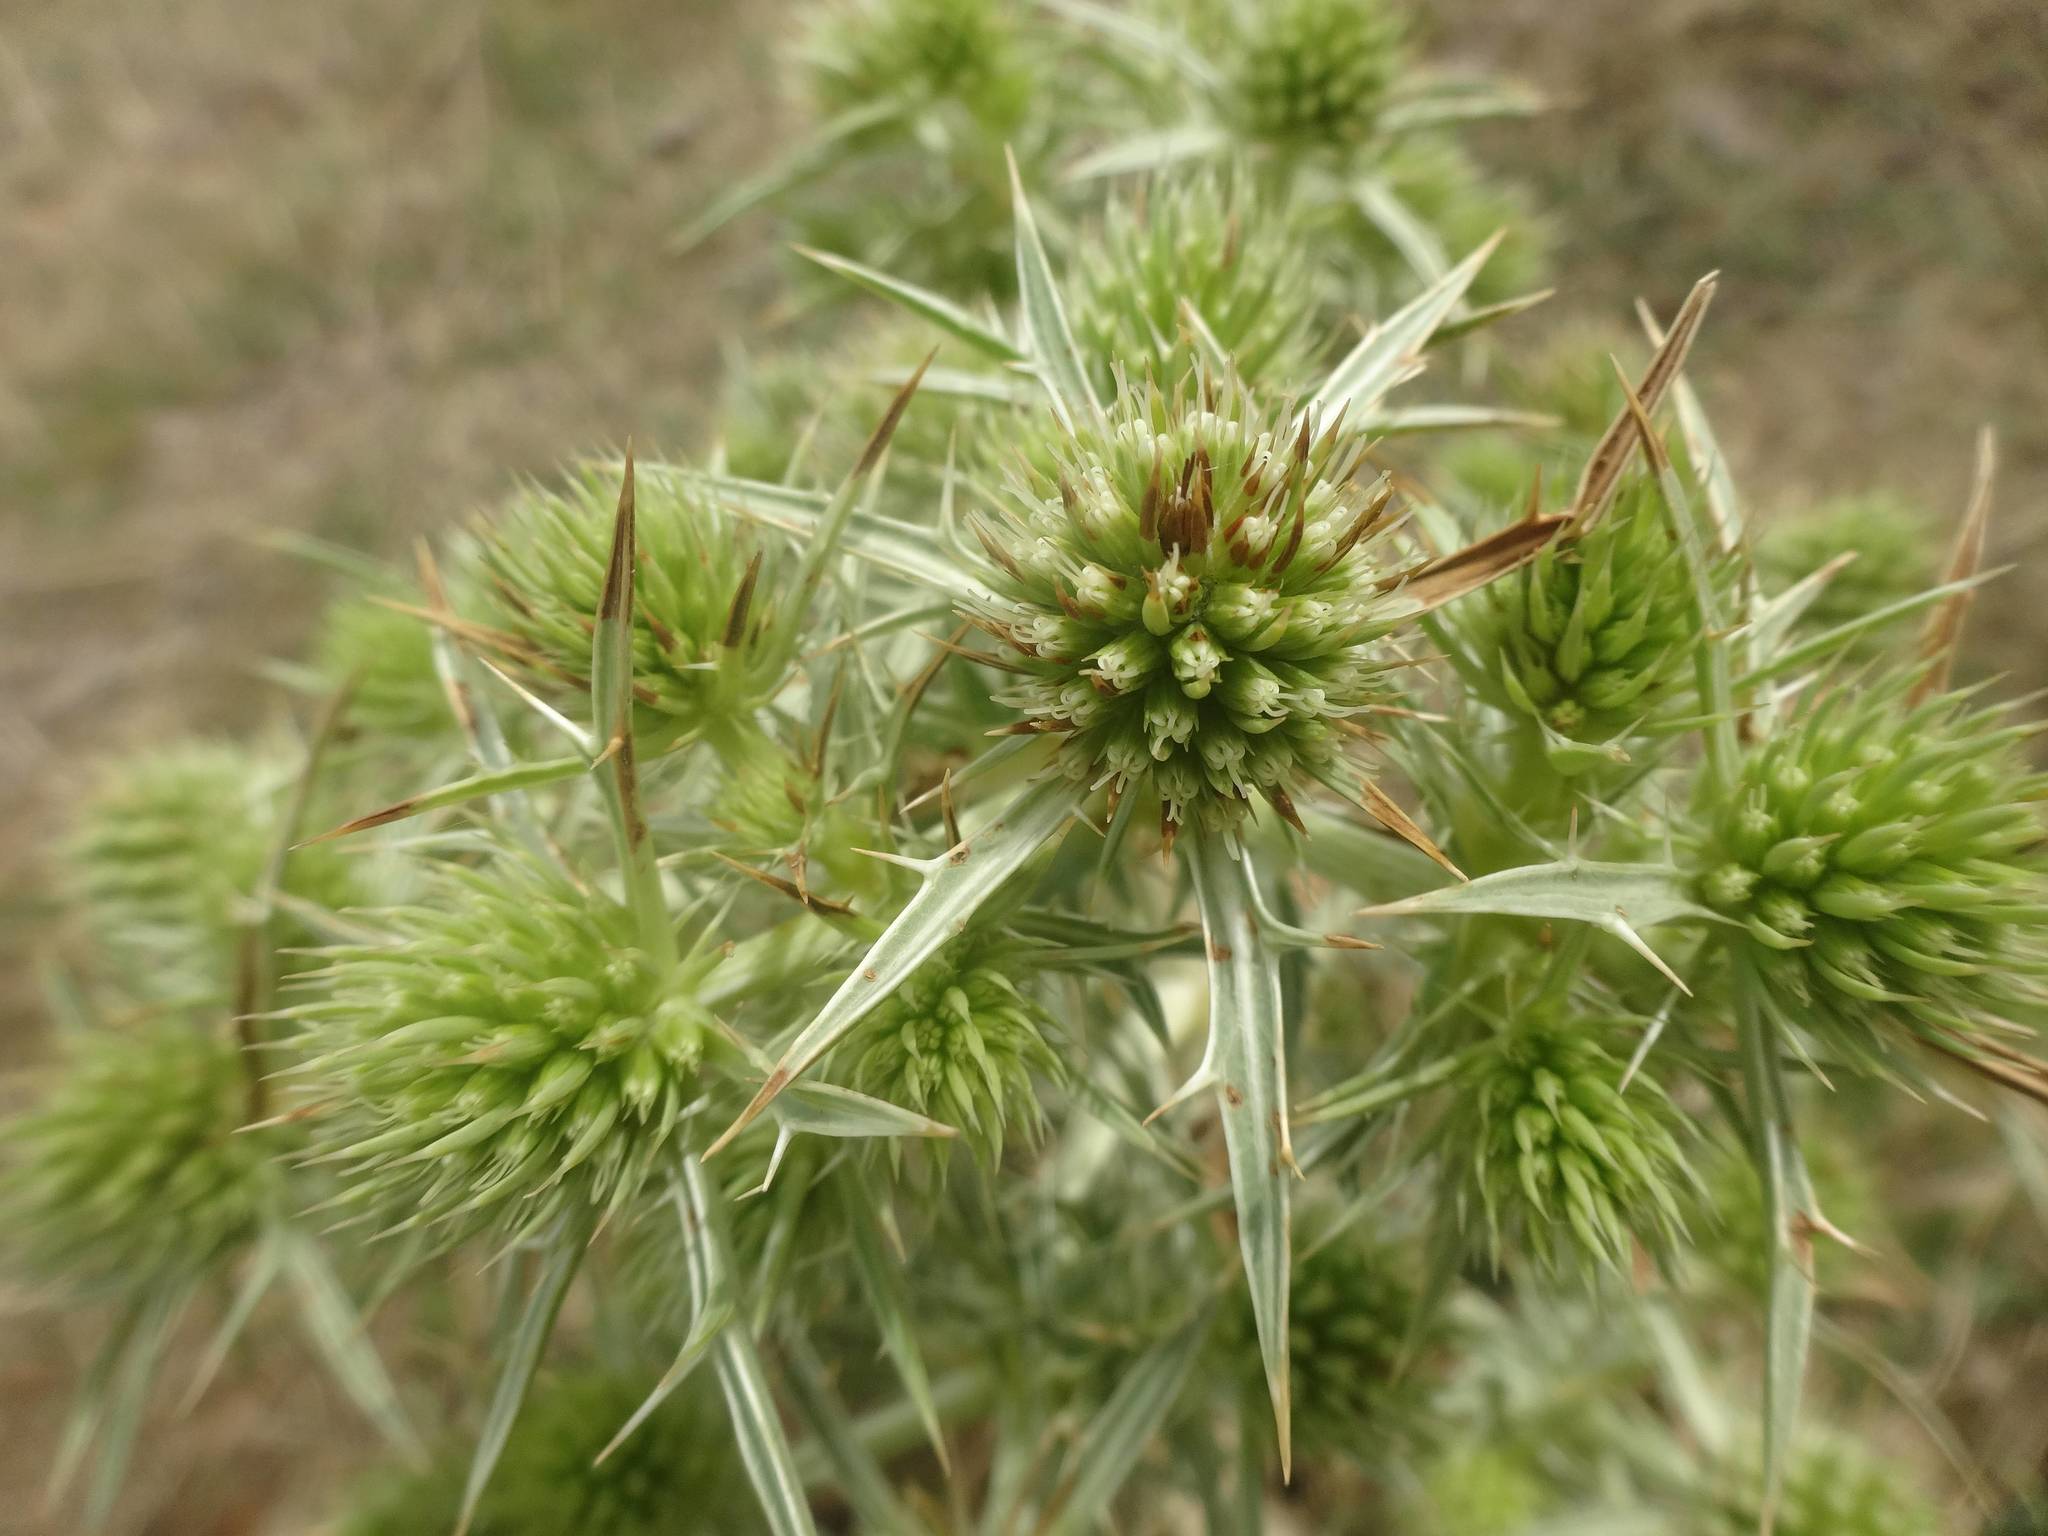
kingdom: Plantae
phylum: Tracheophyta
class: Magnoliopsida
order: Apiales
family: Apiaceae
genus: Eryngium
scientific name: Eryngium campestre
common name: Field eryngo
